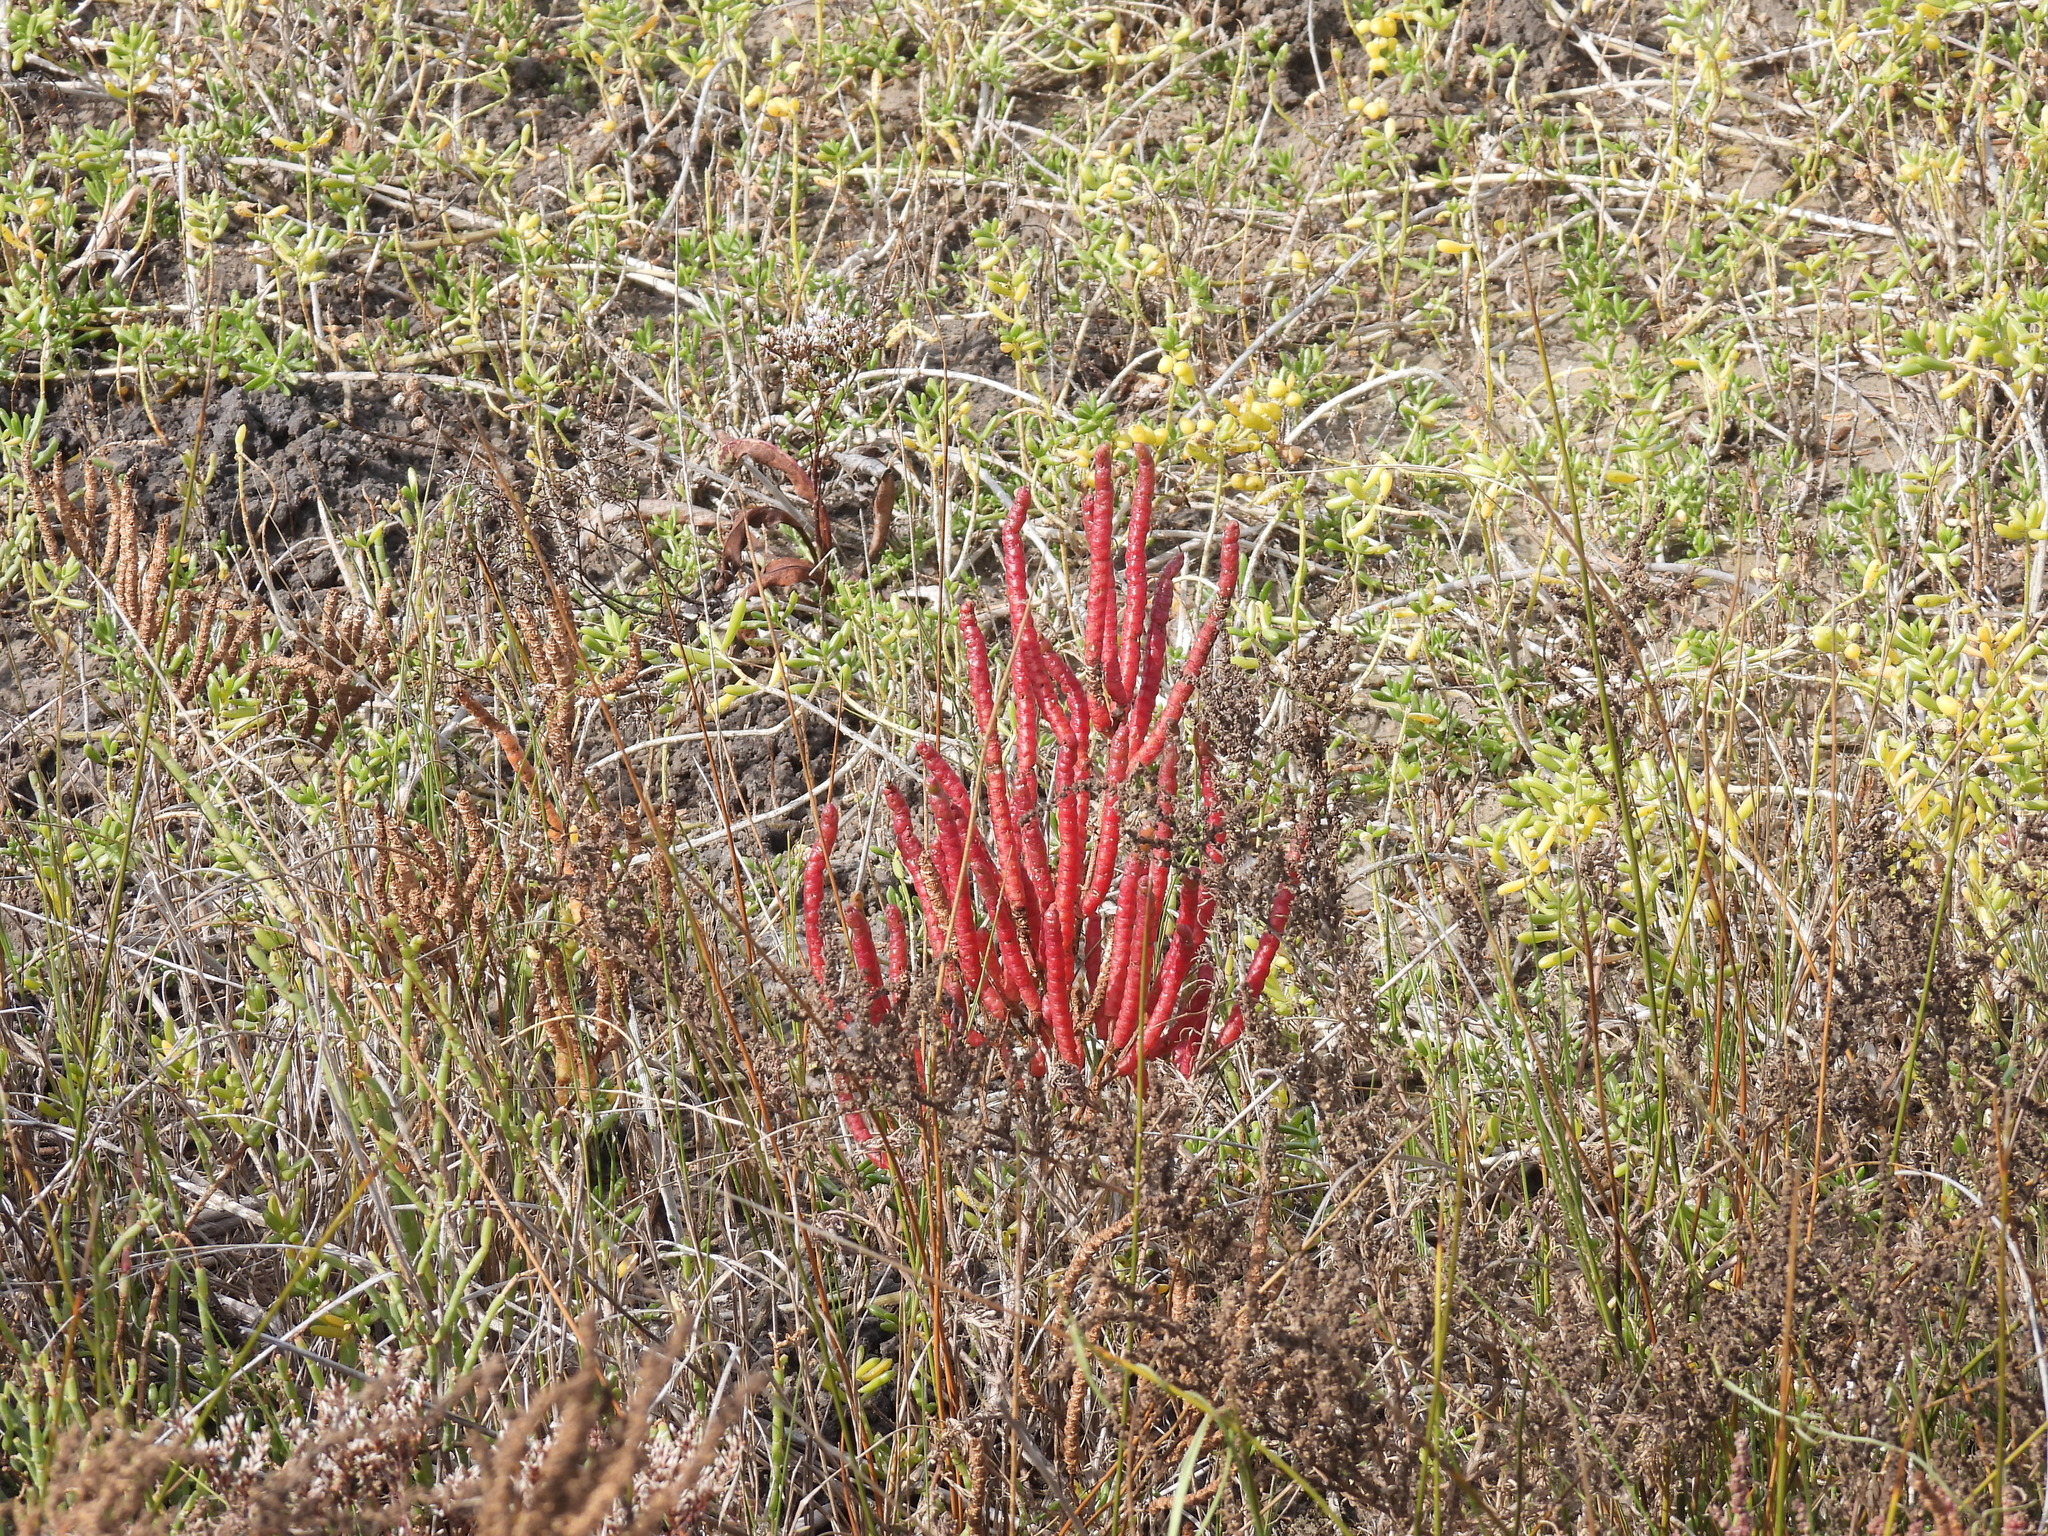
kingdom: Plantae
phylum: Tracheophyta
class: Magnoliopsida
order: Caryophyllales
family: Amaranthaceae
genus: Salicornia
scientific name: Salicornia bigelovii
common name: Dwarf glasswort
